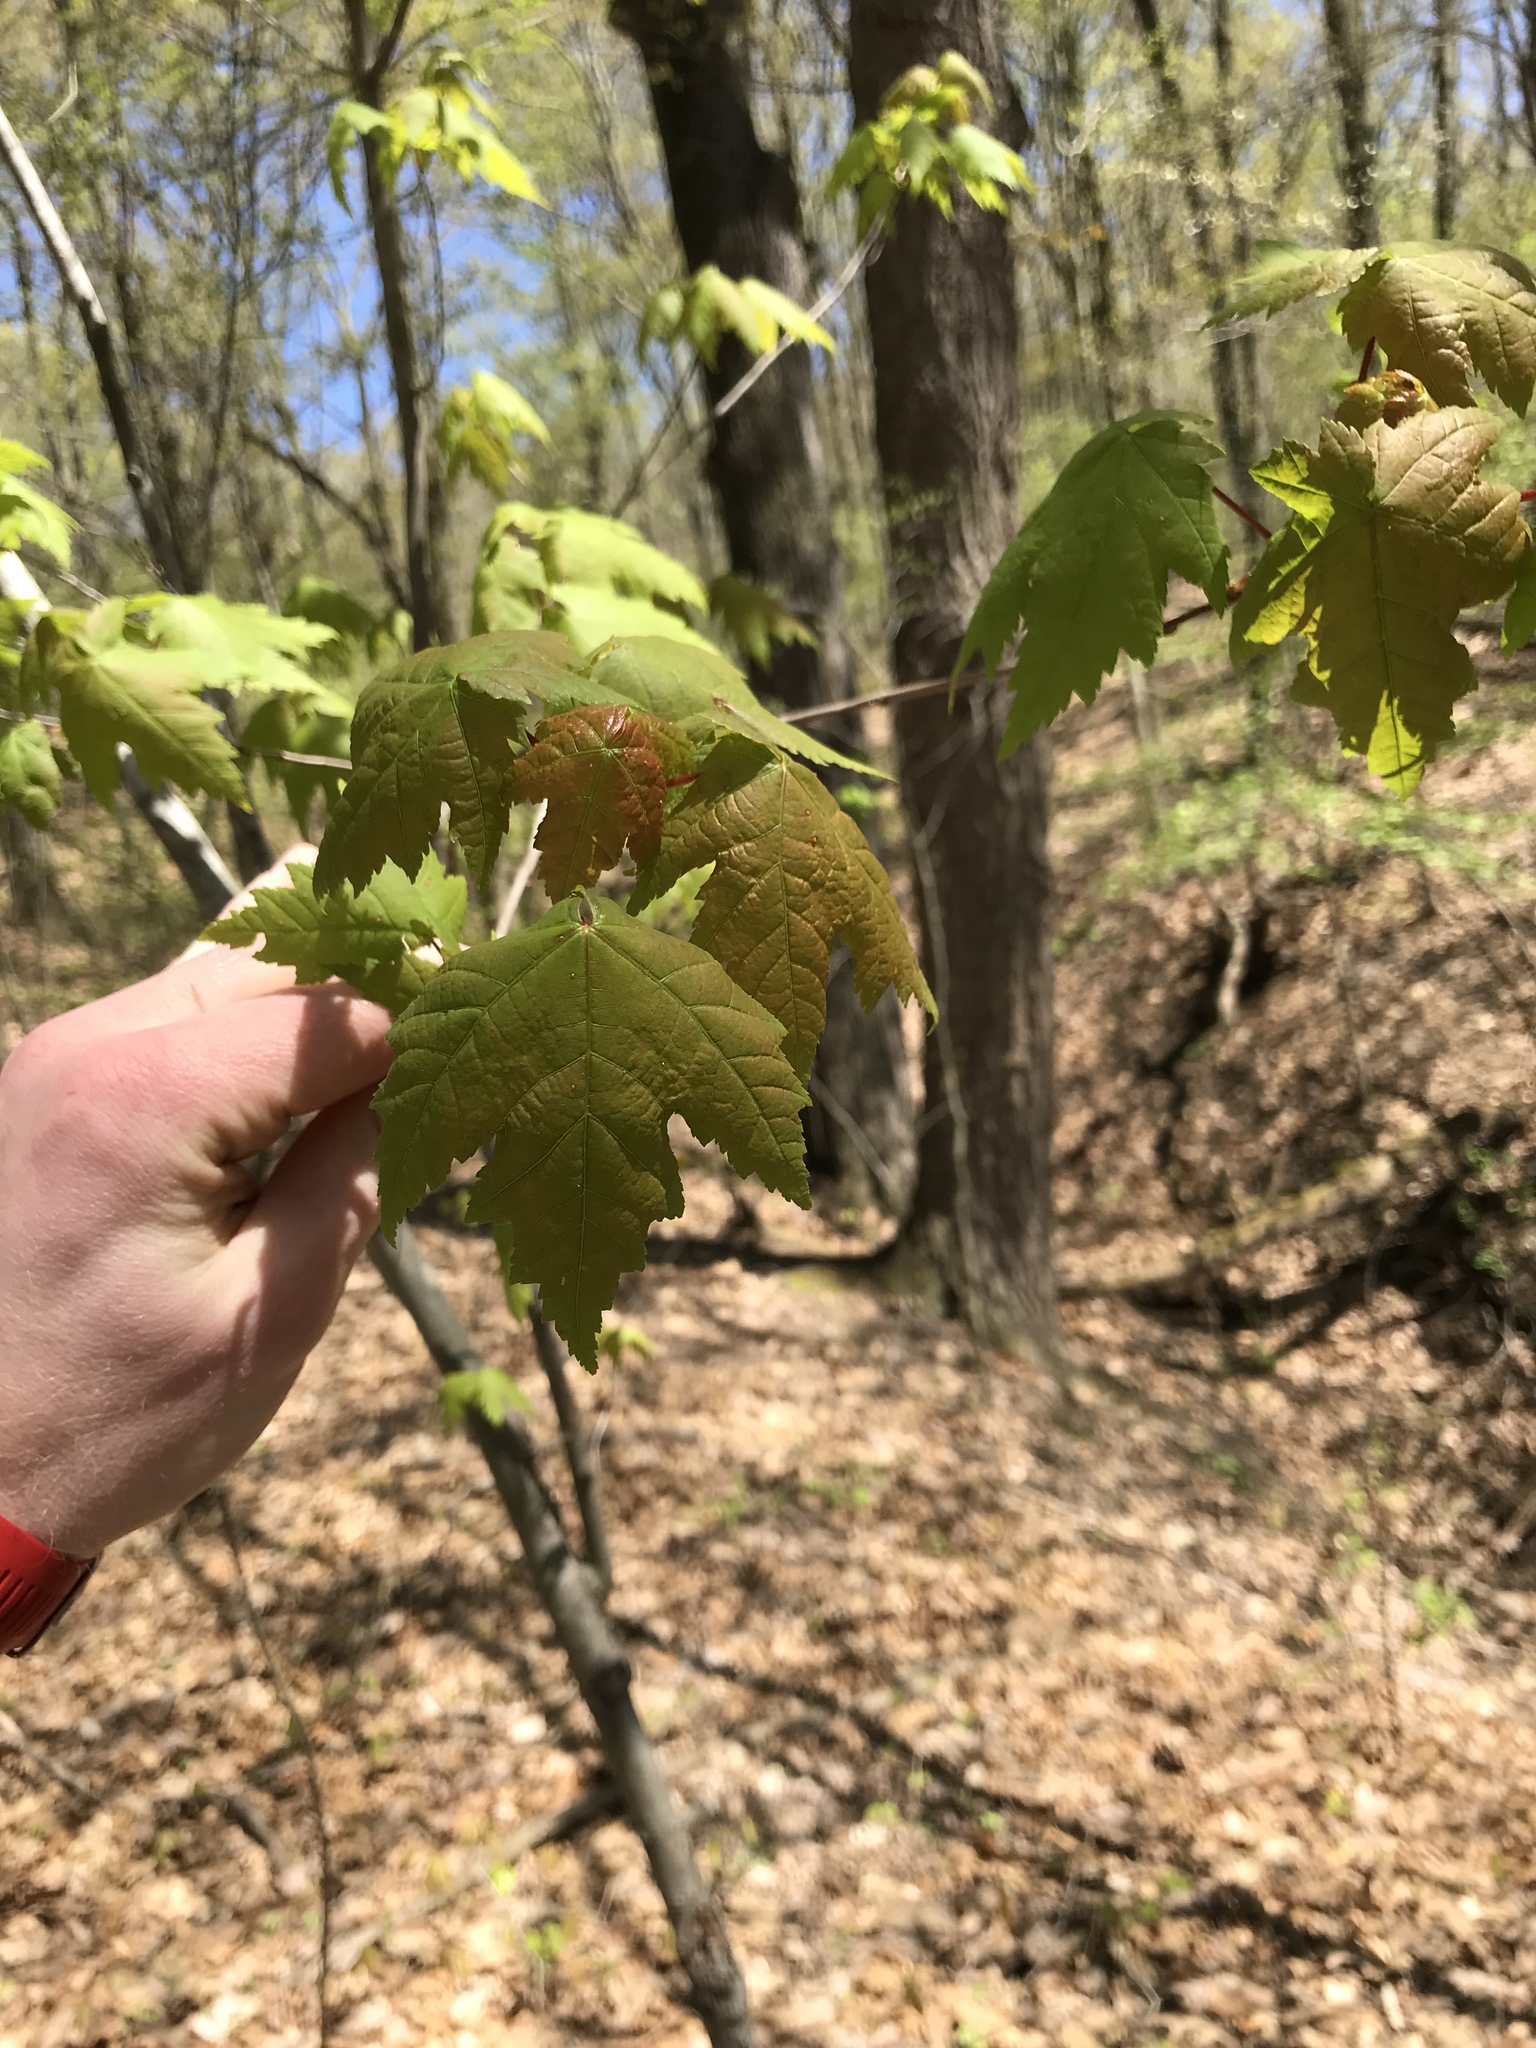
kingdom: Plantae
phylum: Tracheophyta
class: Magnoliopsida
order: Sapindales
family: Sapindaceae
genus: Acer
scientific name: Acer rubrum
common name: Red maple
